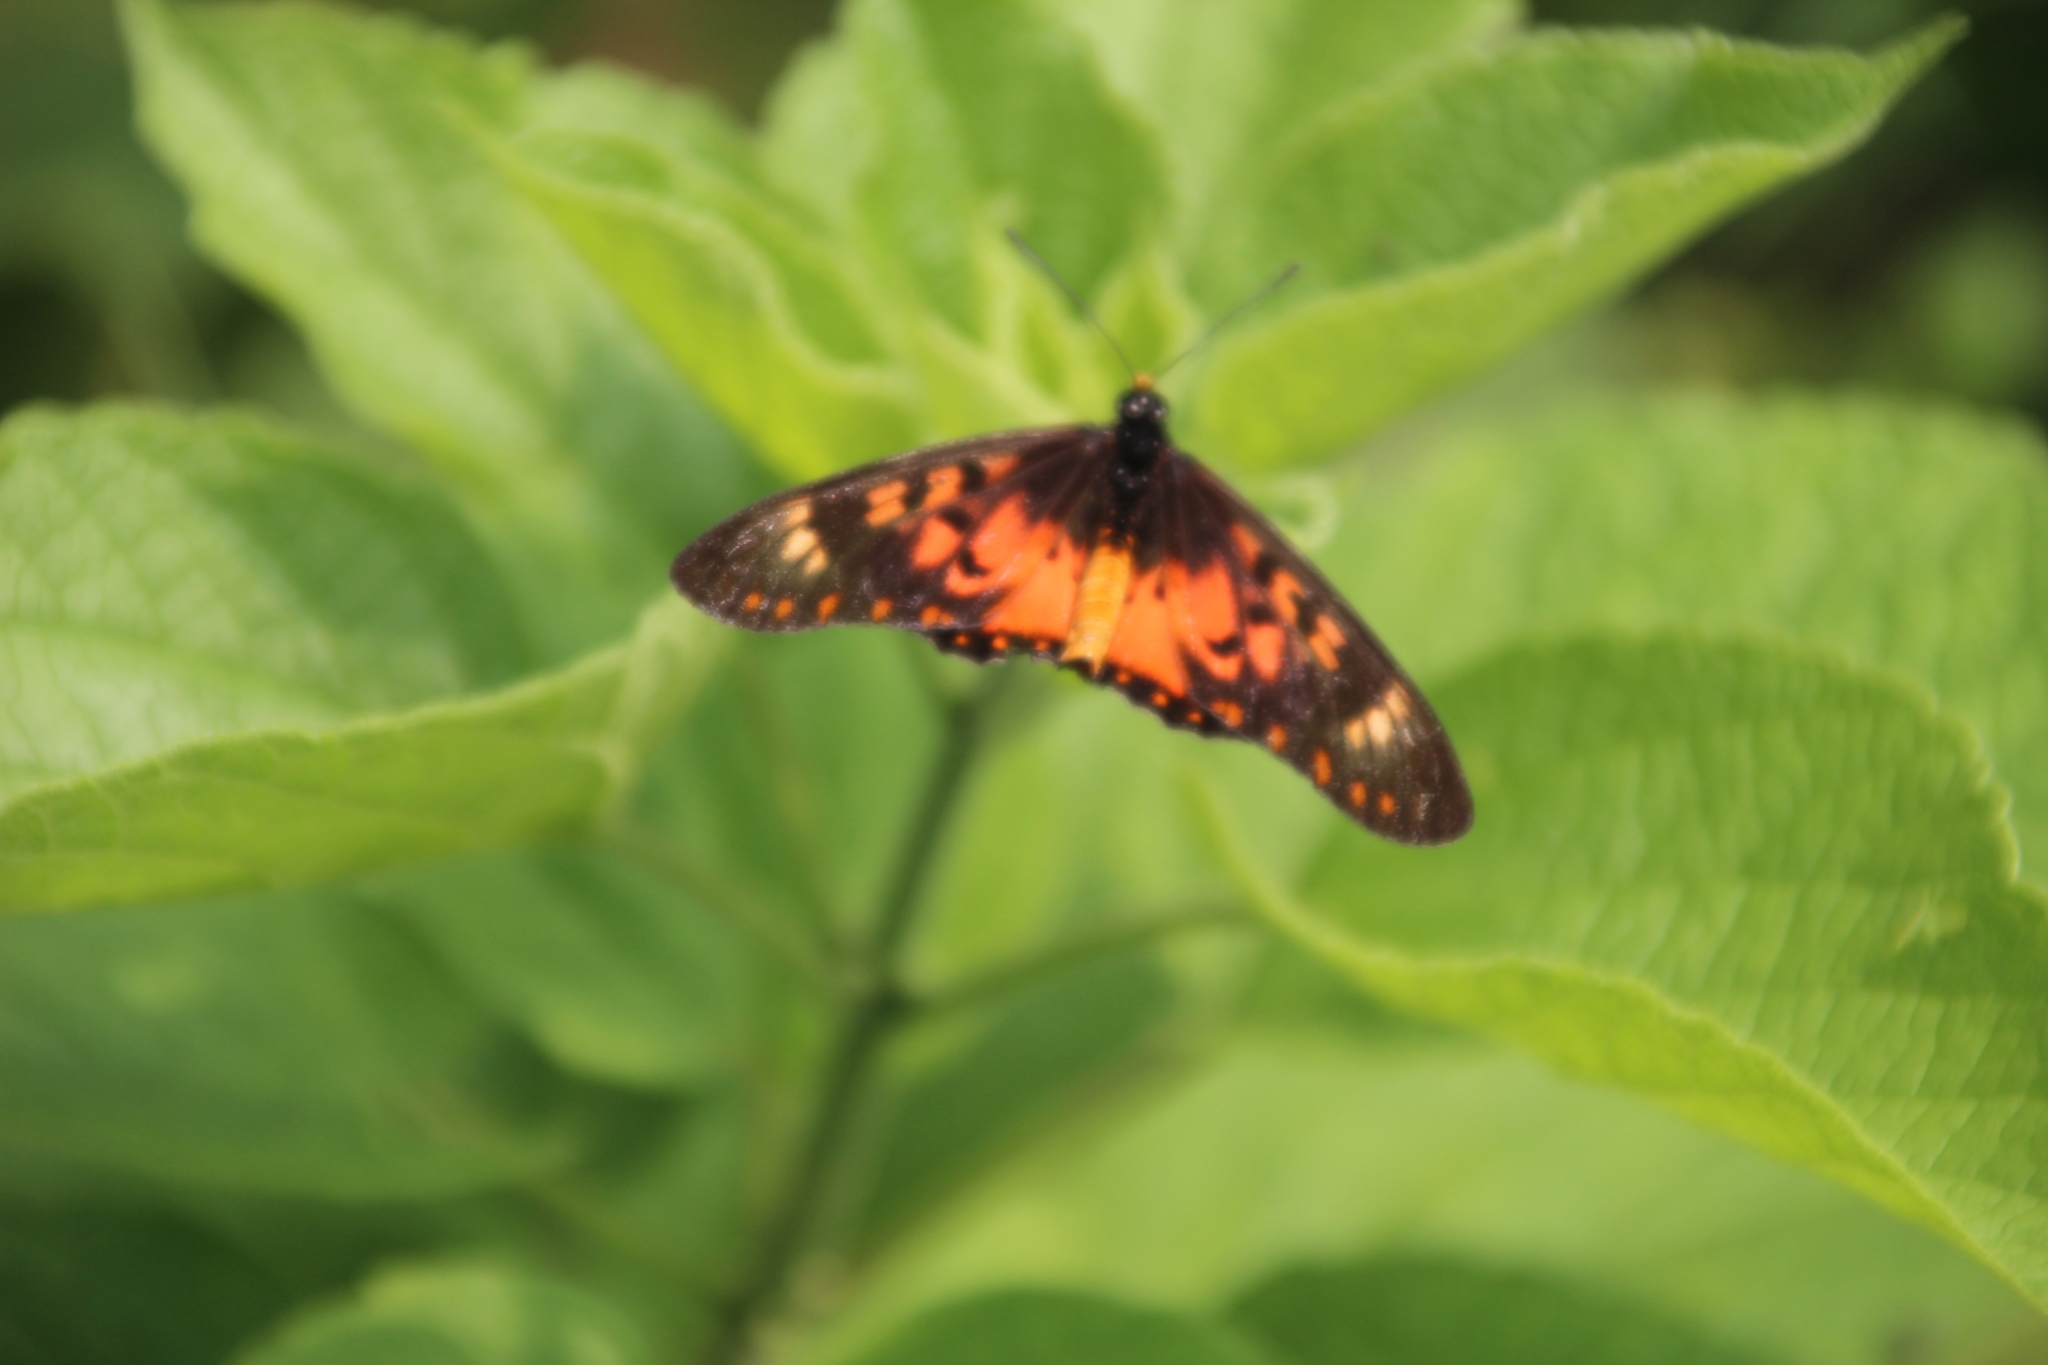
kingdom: Animalia
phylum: Arthropoda
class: Insecta
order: Lepidoptera
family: Nymphalidae
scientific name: Nymphalidae
